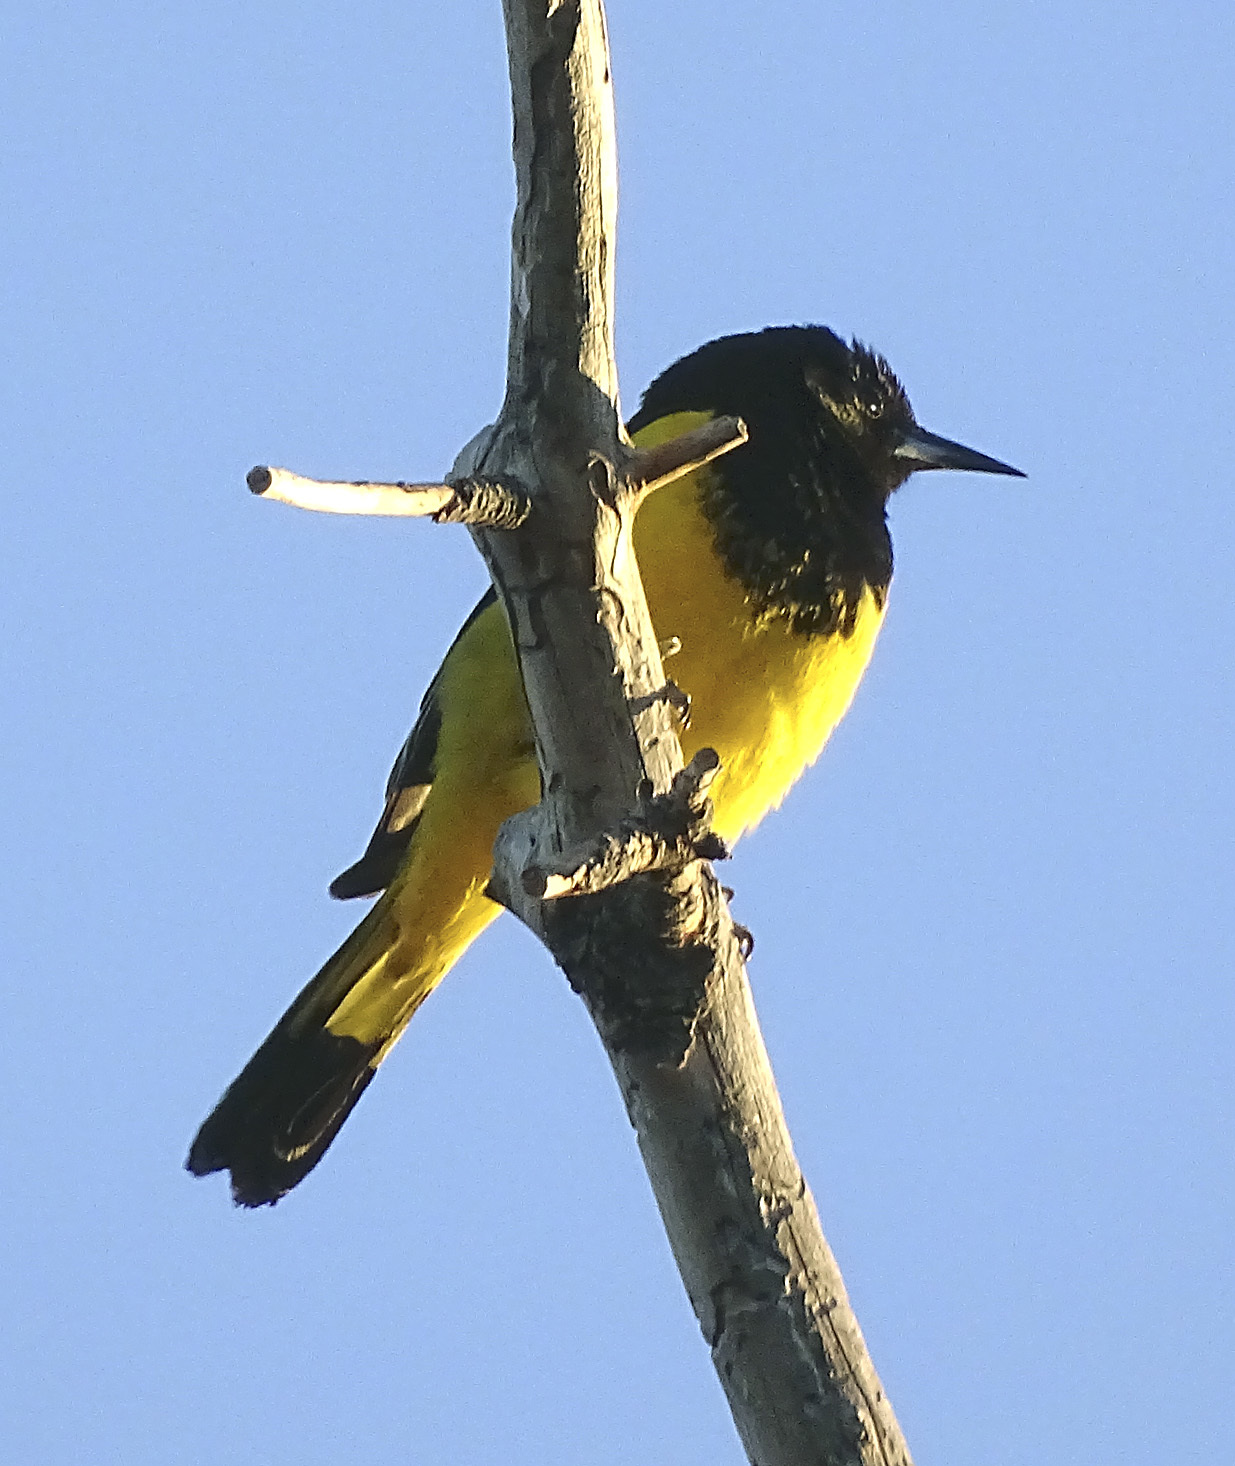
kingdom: Animalia
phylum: Chordata
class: Aves
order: Passeriformes
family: Icteridae
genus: Icterus
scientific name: Icterus parisorum
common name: Scott's oriole
